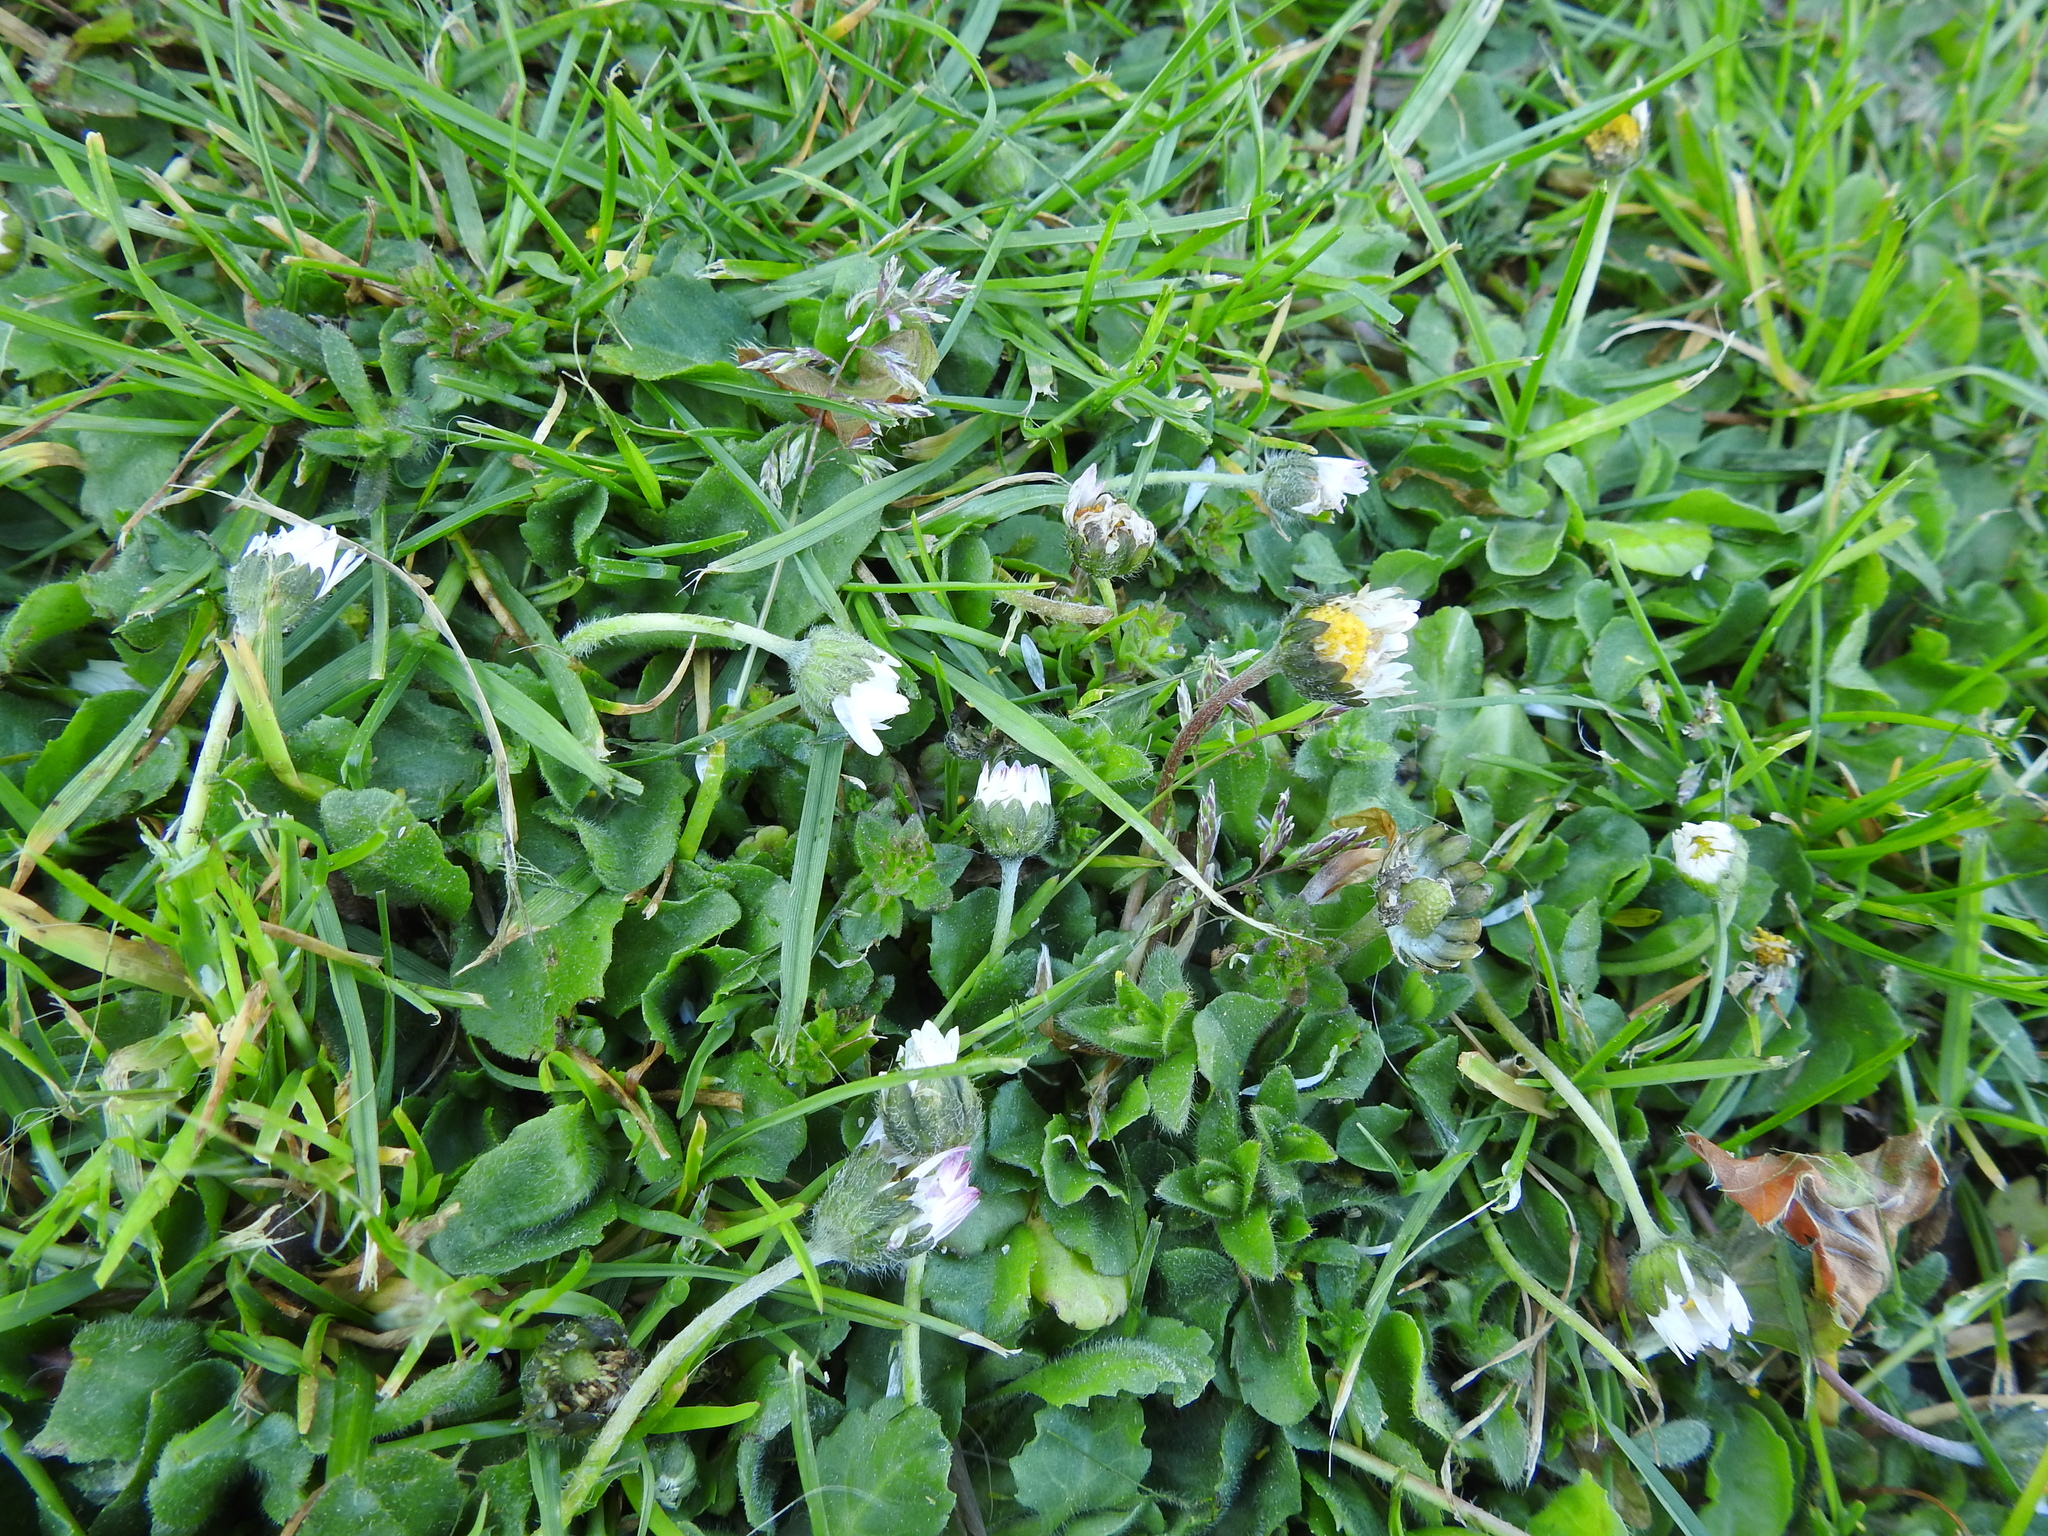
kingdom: Plantae
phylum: Tracheophyta
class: Magnoliopsida
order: Asterales
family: Asteraceae
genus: Bellis
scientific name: Bellis perennis
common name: Lawndaisy
